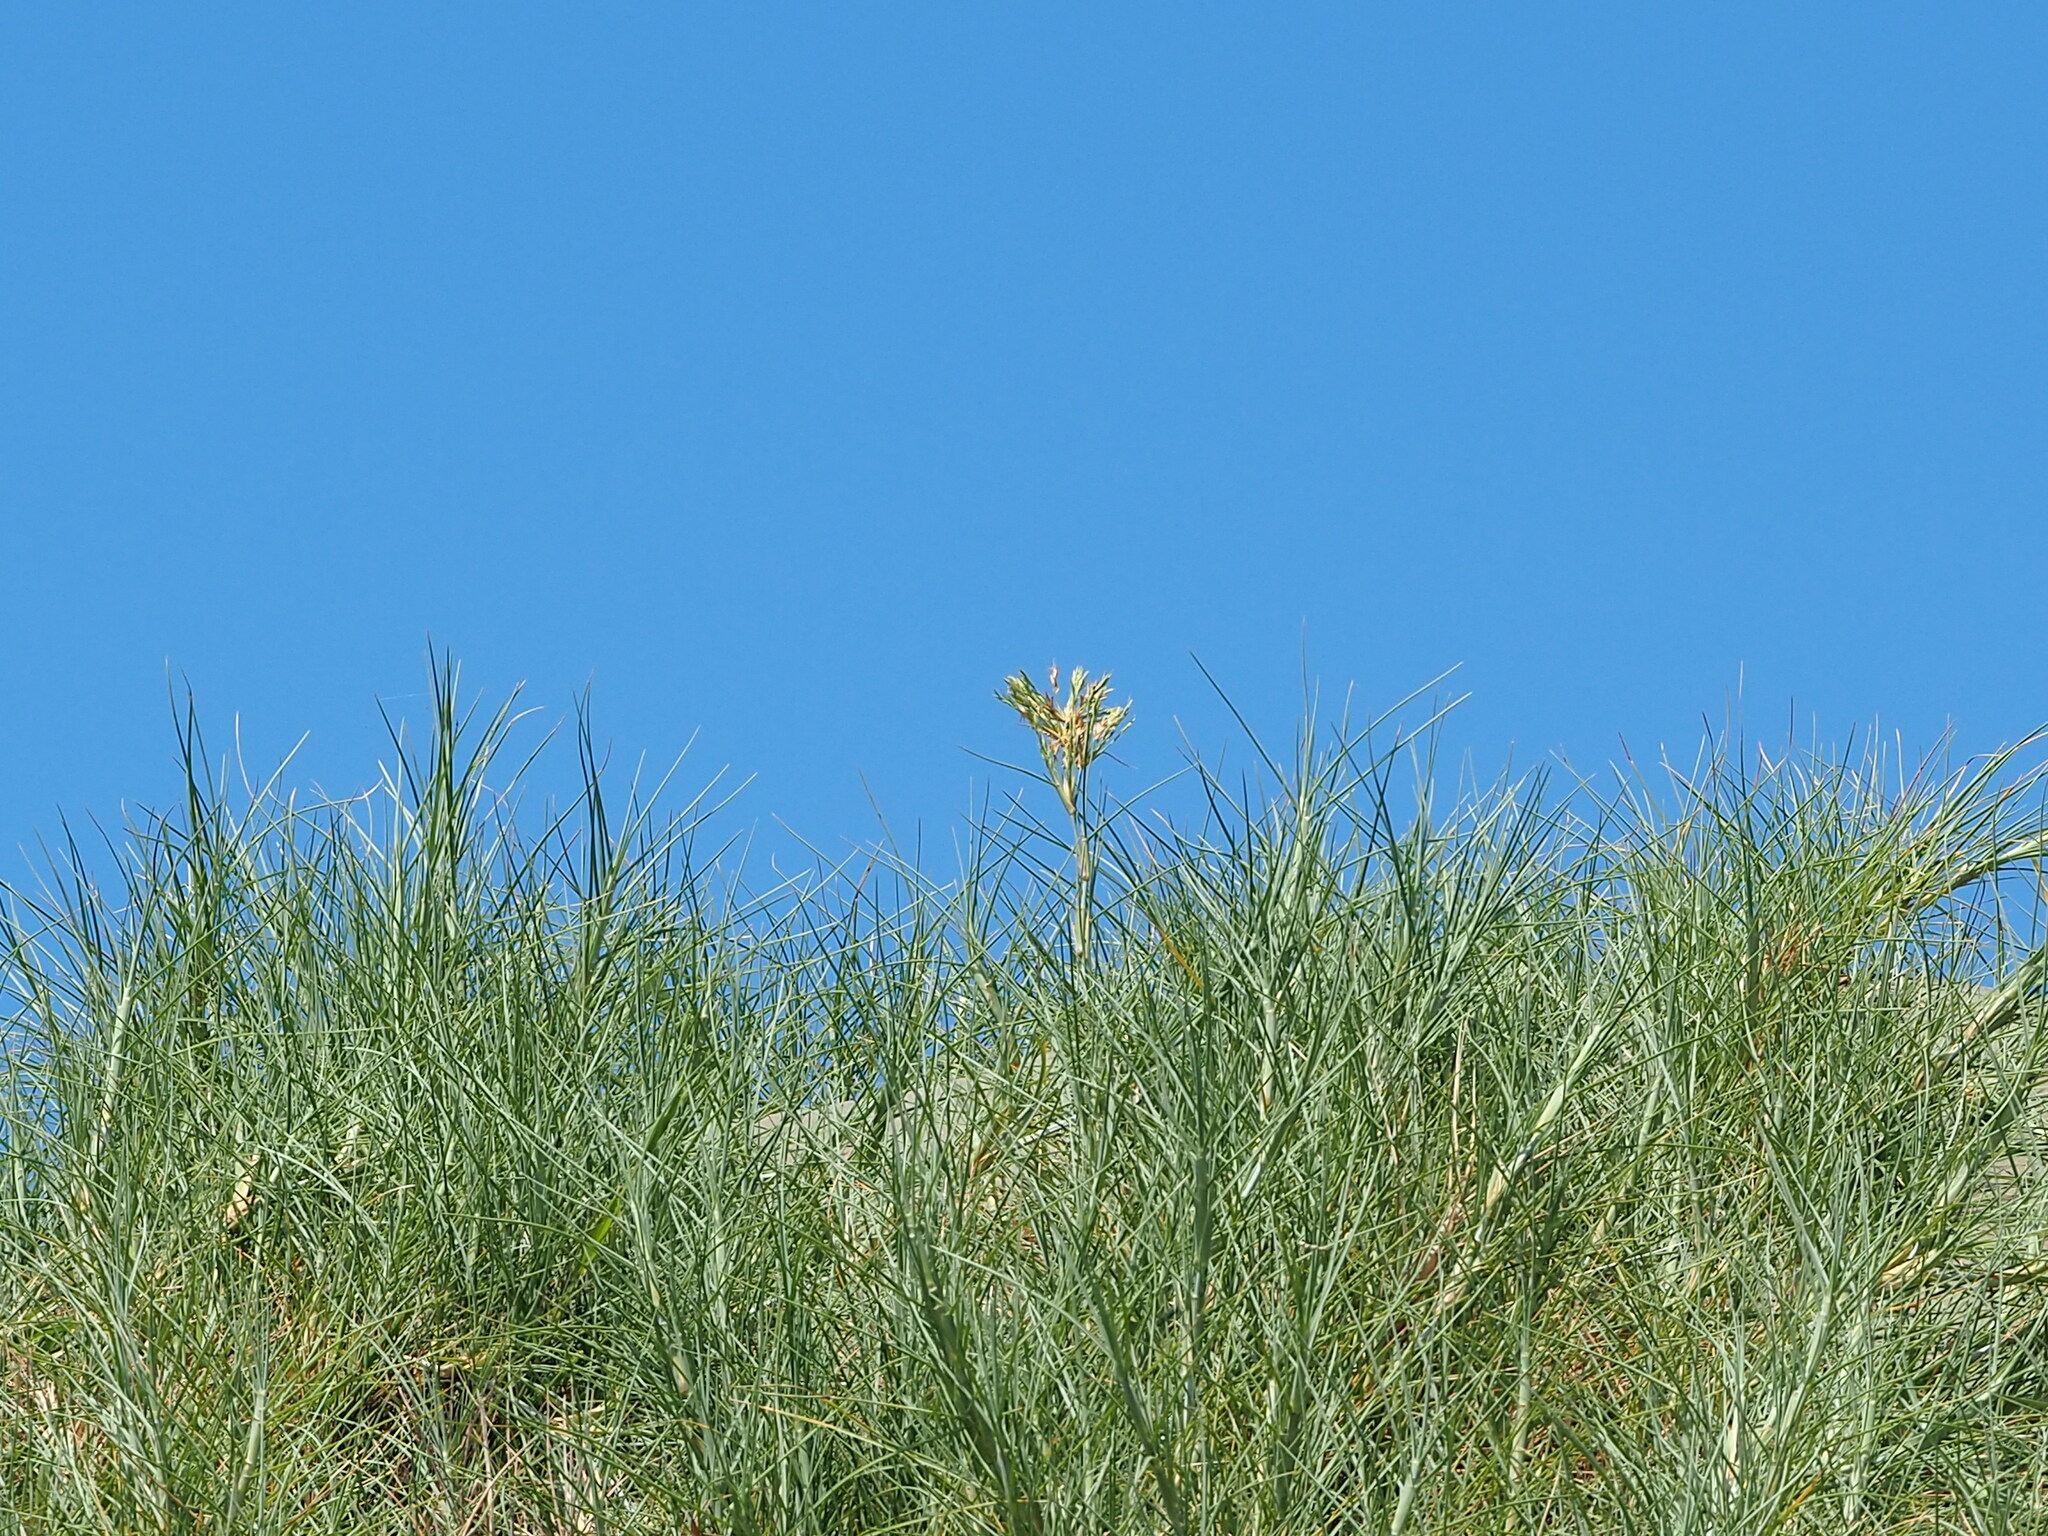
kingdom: Plantae
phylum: Tracheophyta
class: Liliopsida
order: Poales
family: Poaceae
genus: Spinifex
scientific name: Spinifex littoreus
